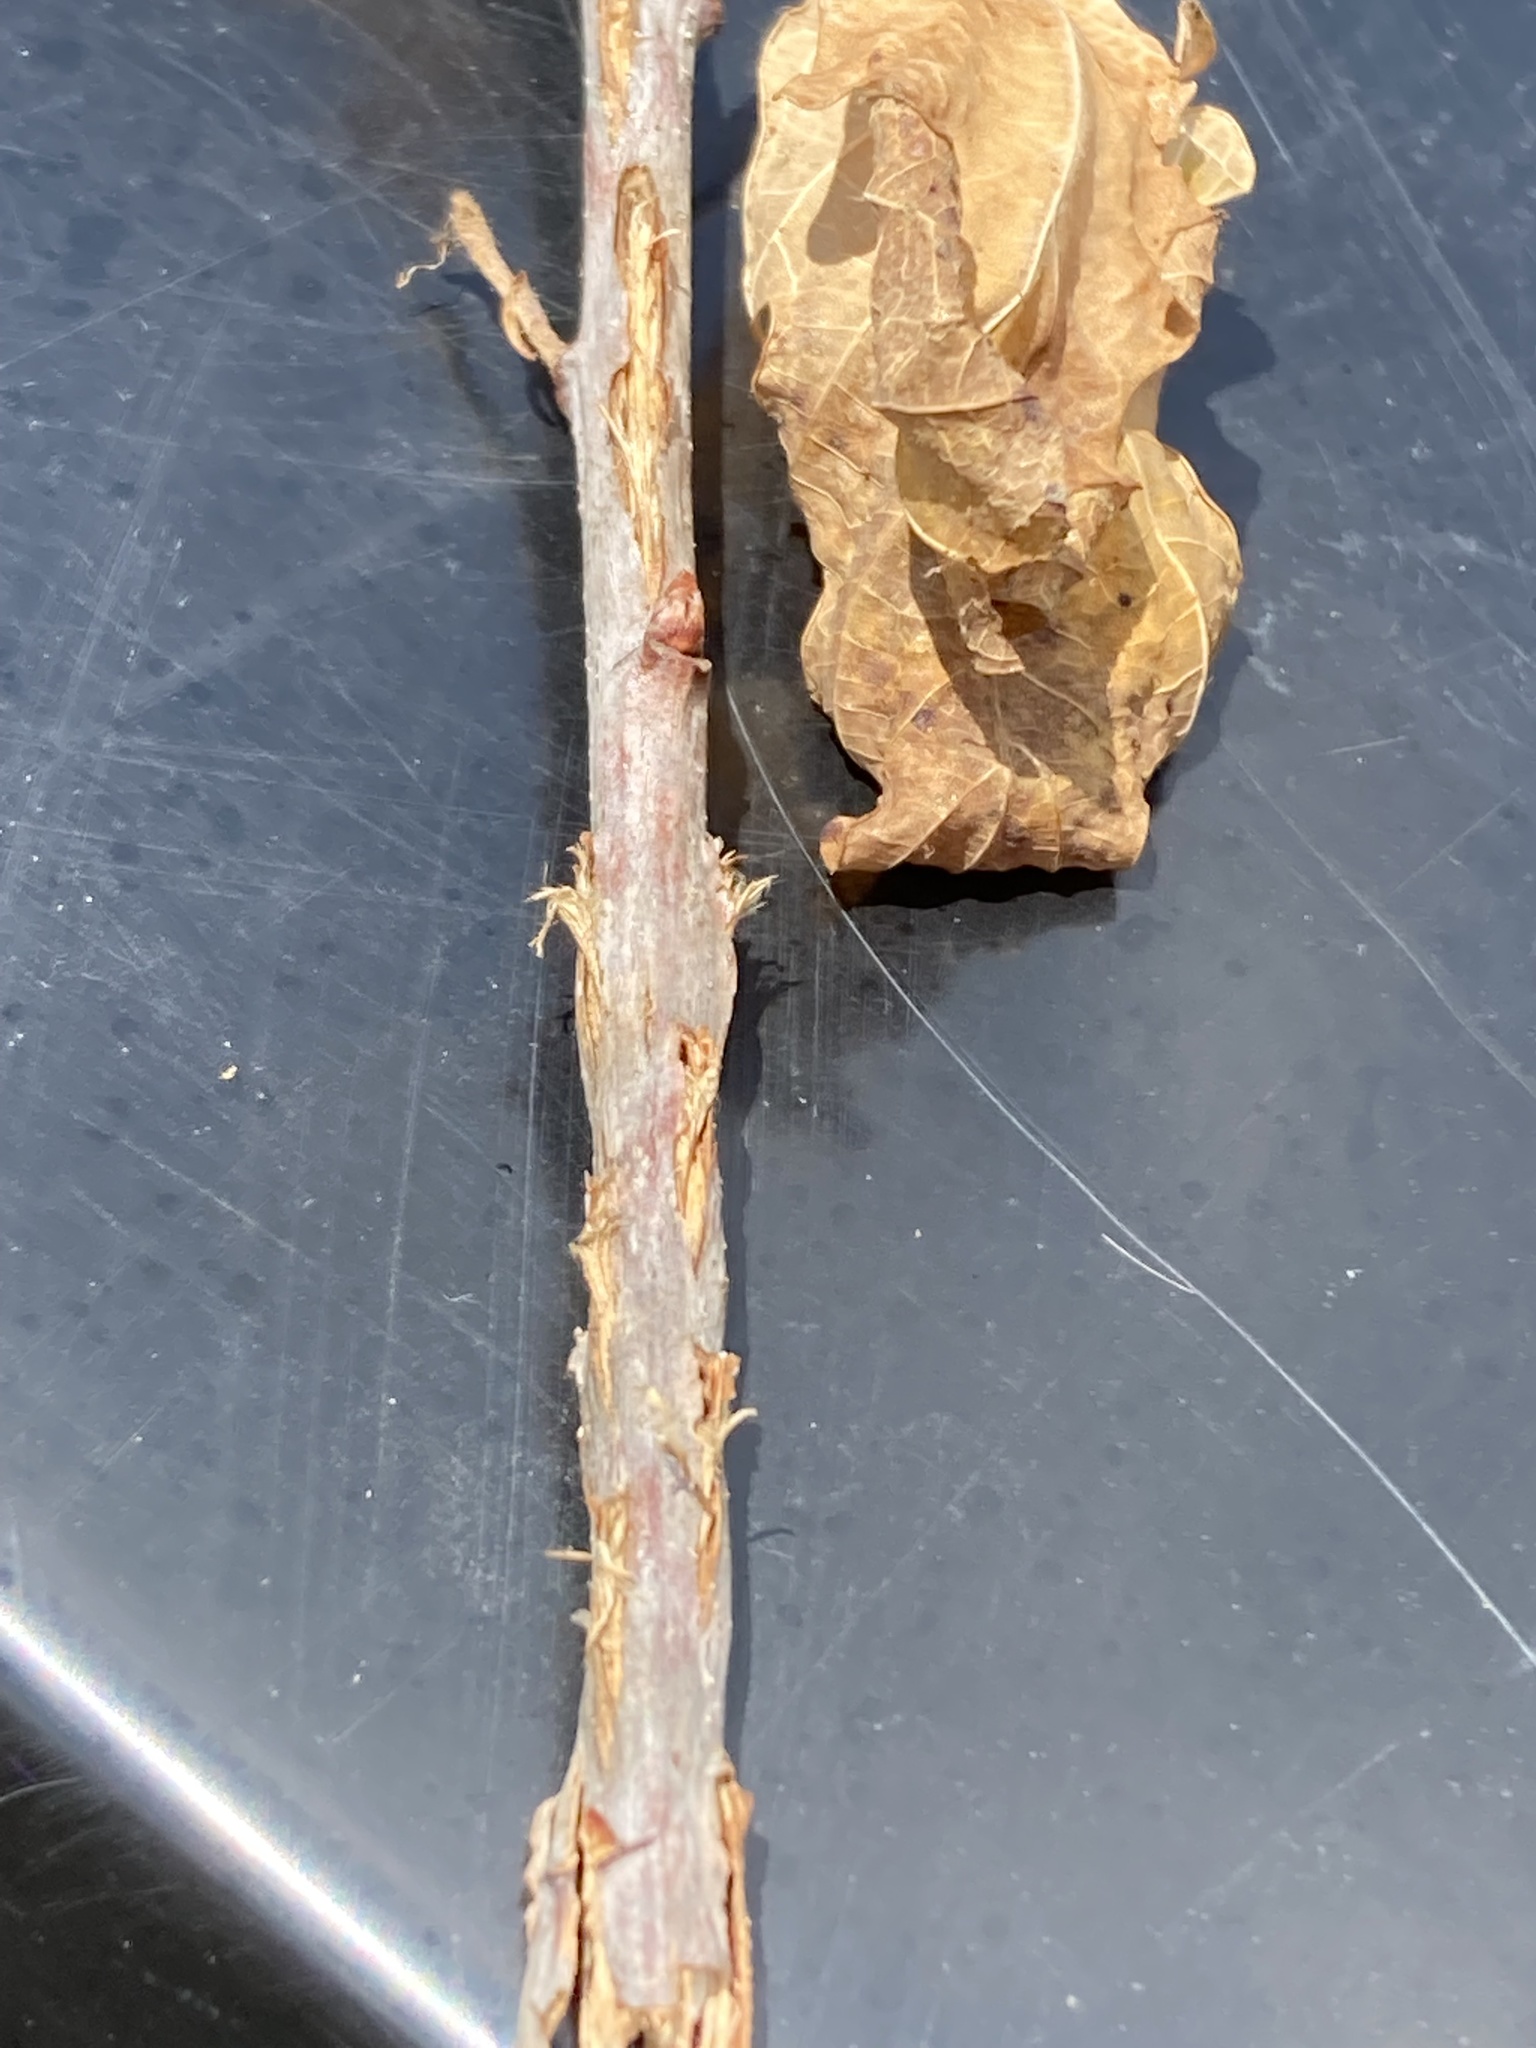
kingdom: Animalia
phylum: Arthropoda
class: Insecta
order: Hemiptera
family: Cicadidae
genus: Magicicada
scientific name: Magicicada
